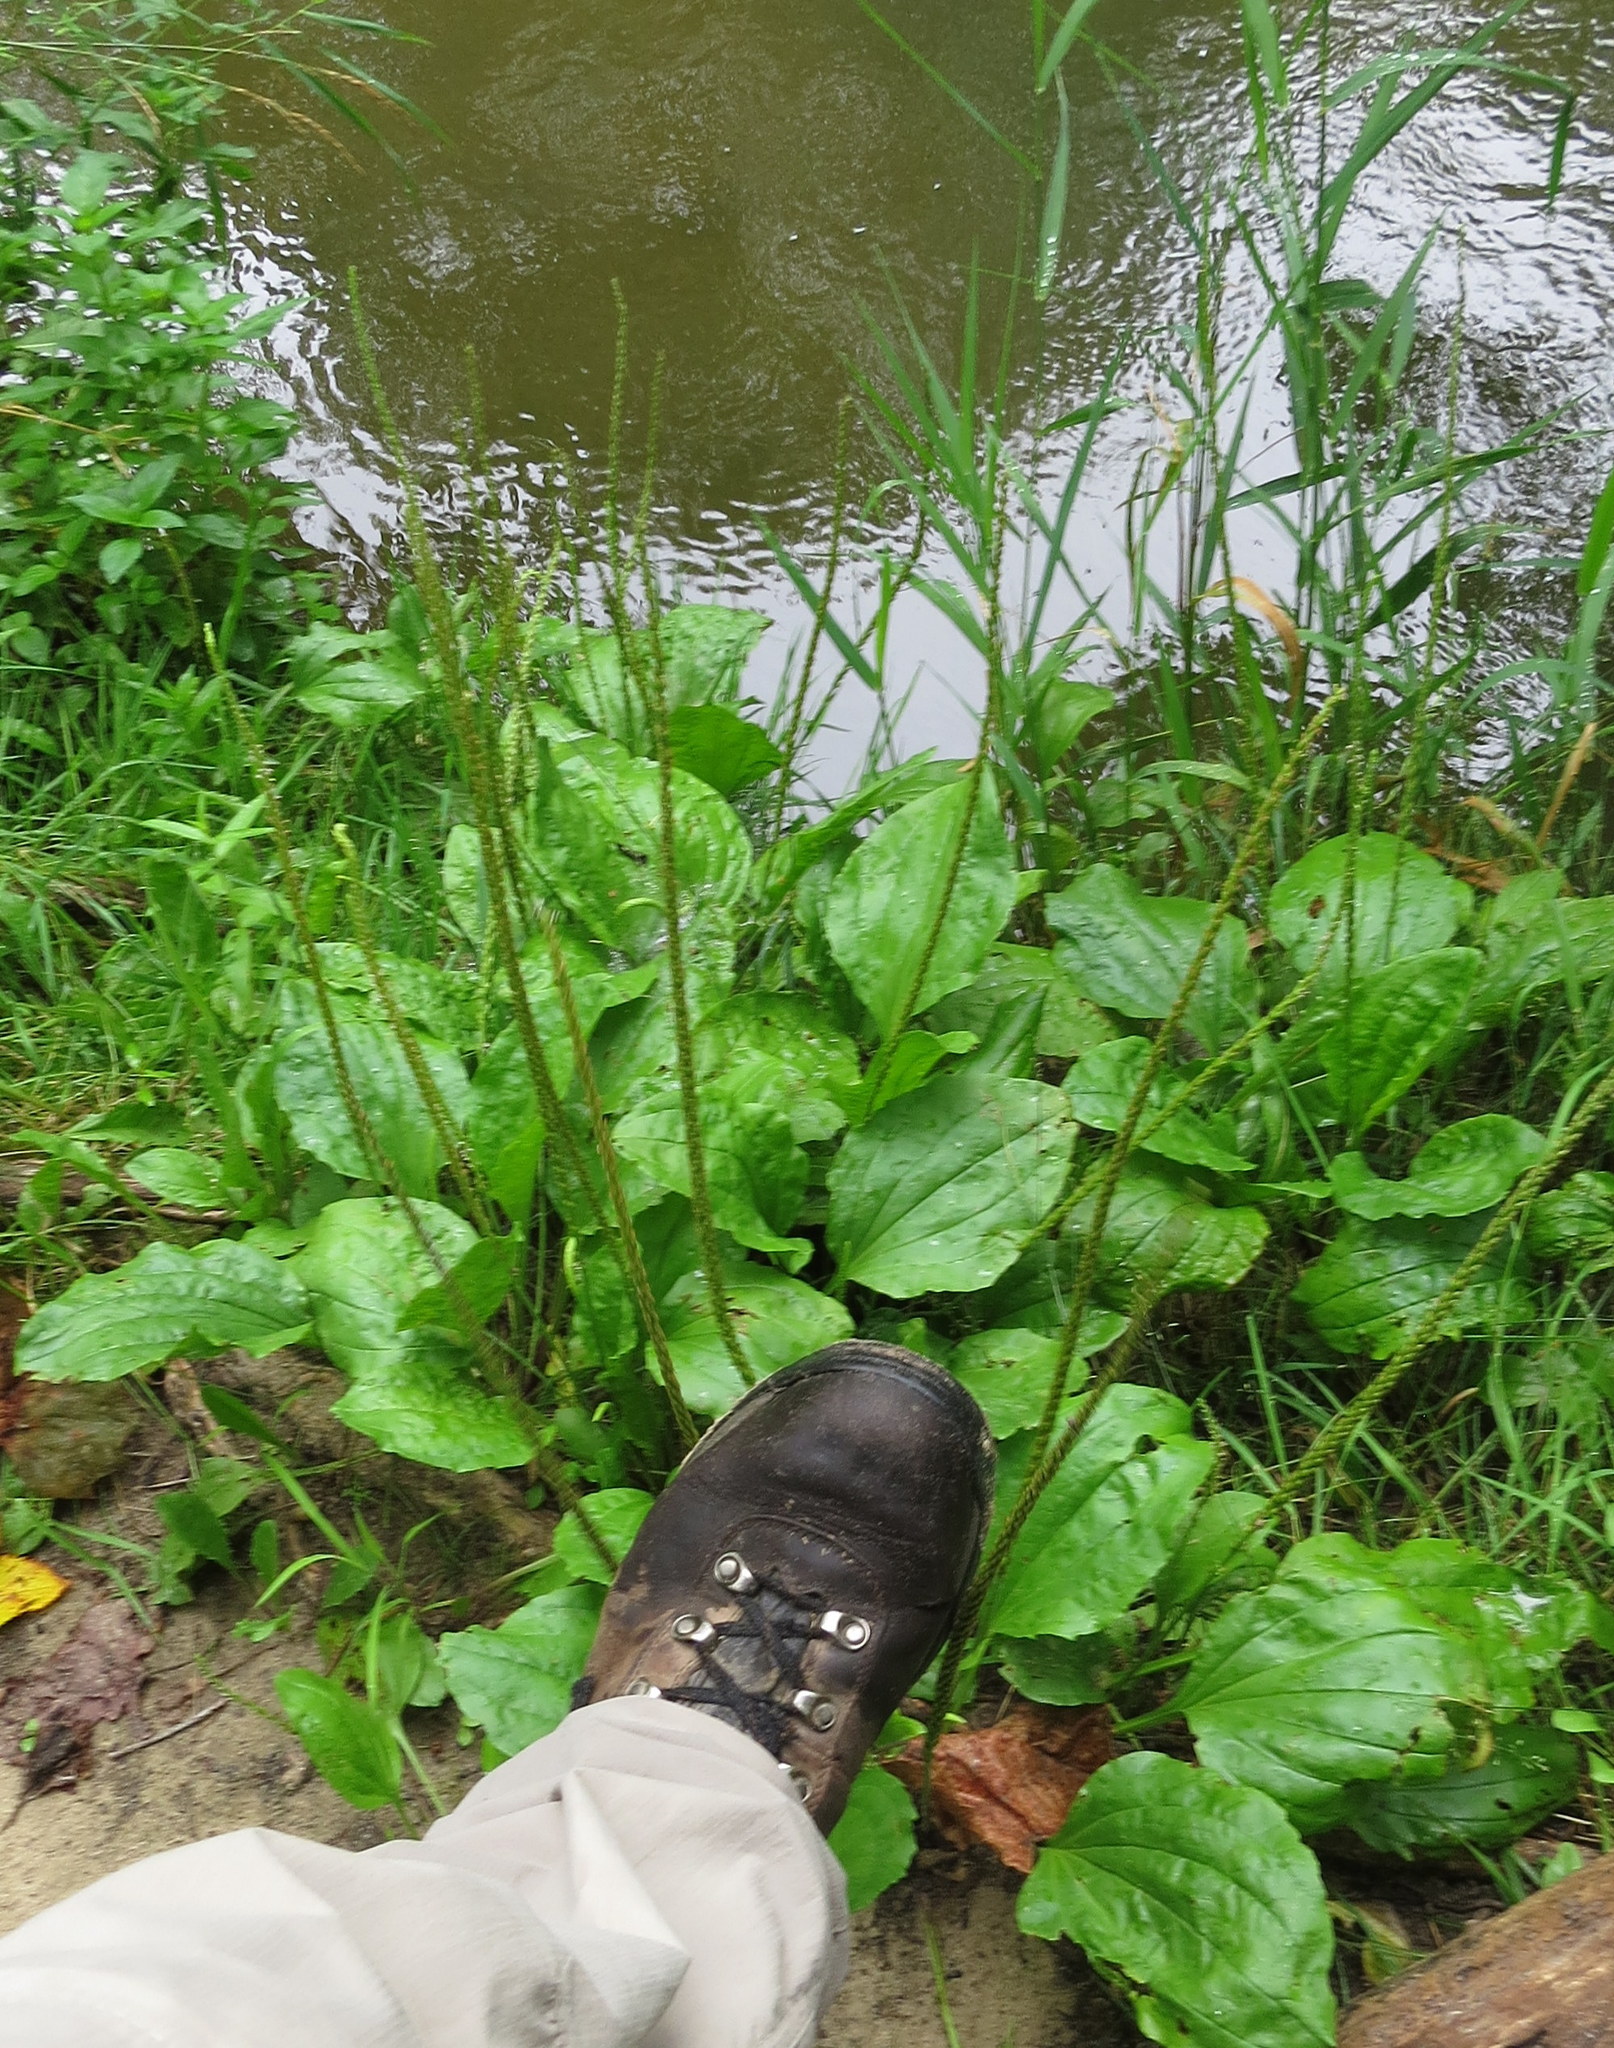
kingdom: Plantae
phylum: Tracheophyta
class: Magnoliopsida
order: Lamiales
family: Plantaginaceae
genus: Plantago
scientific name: Plantago rugelii
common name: American plantain
